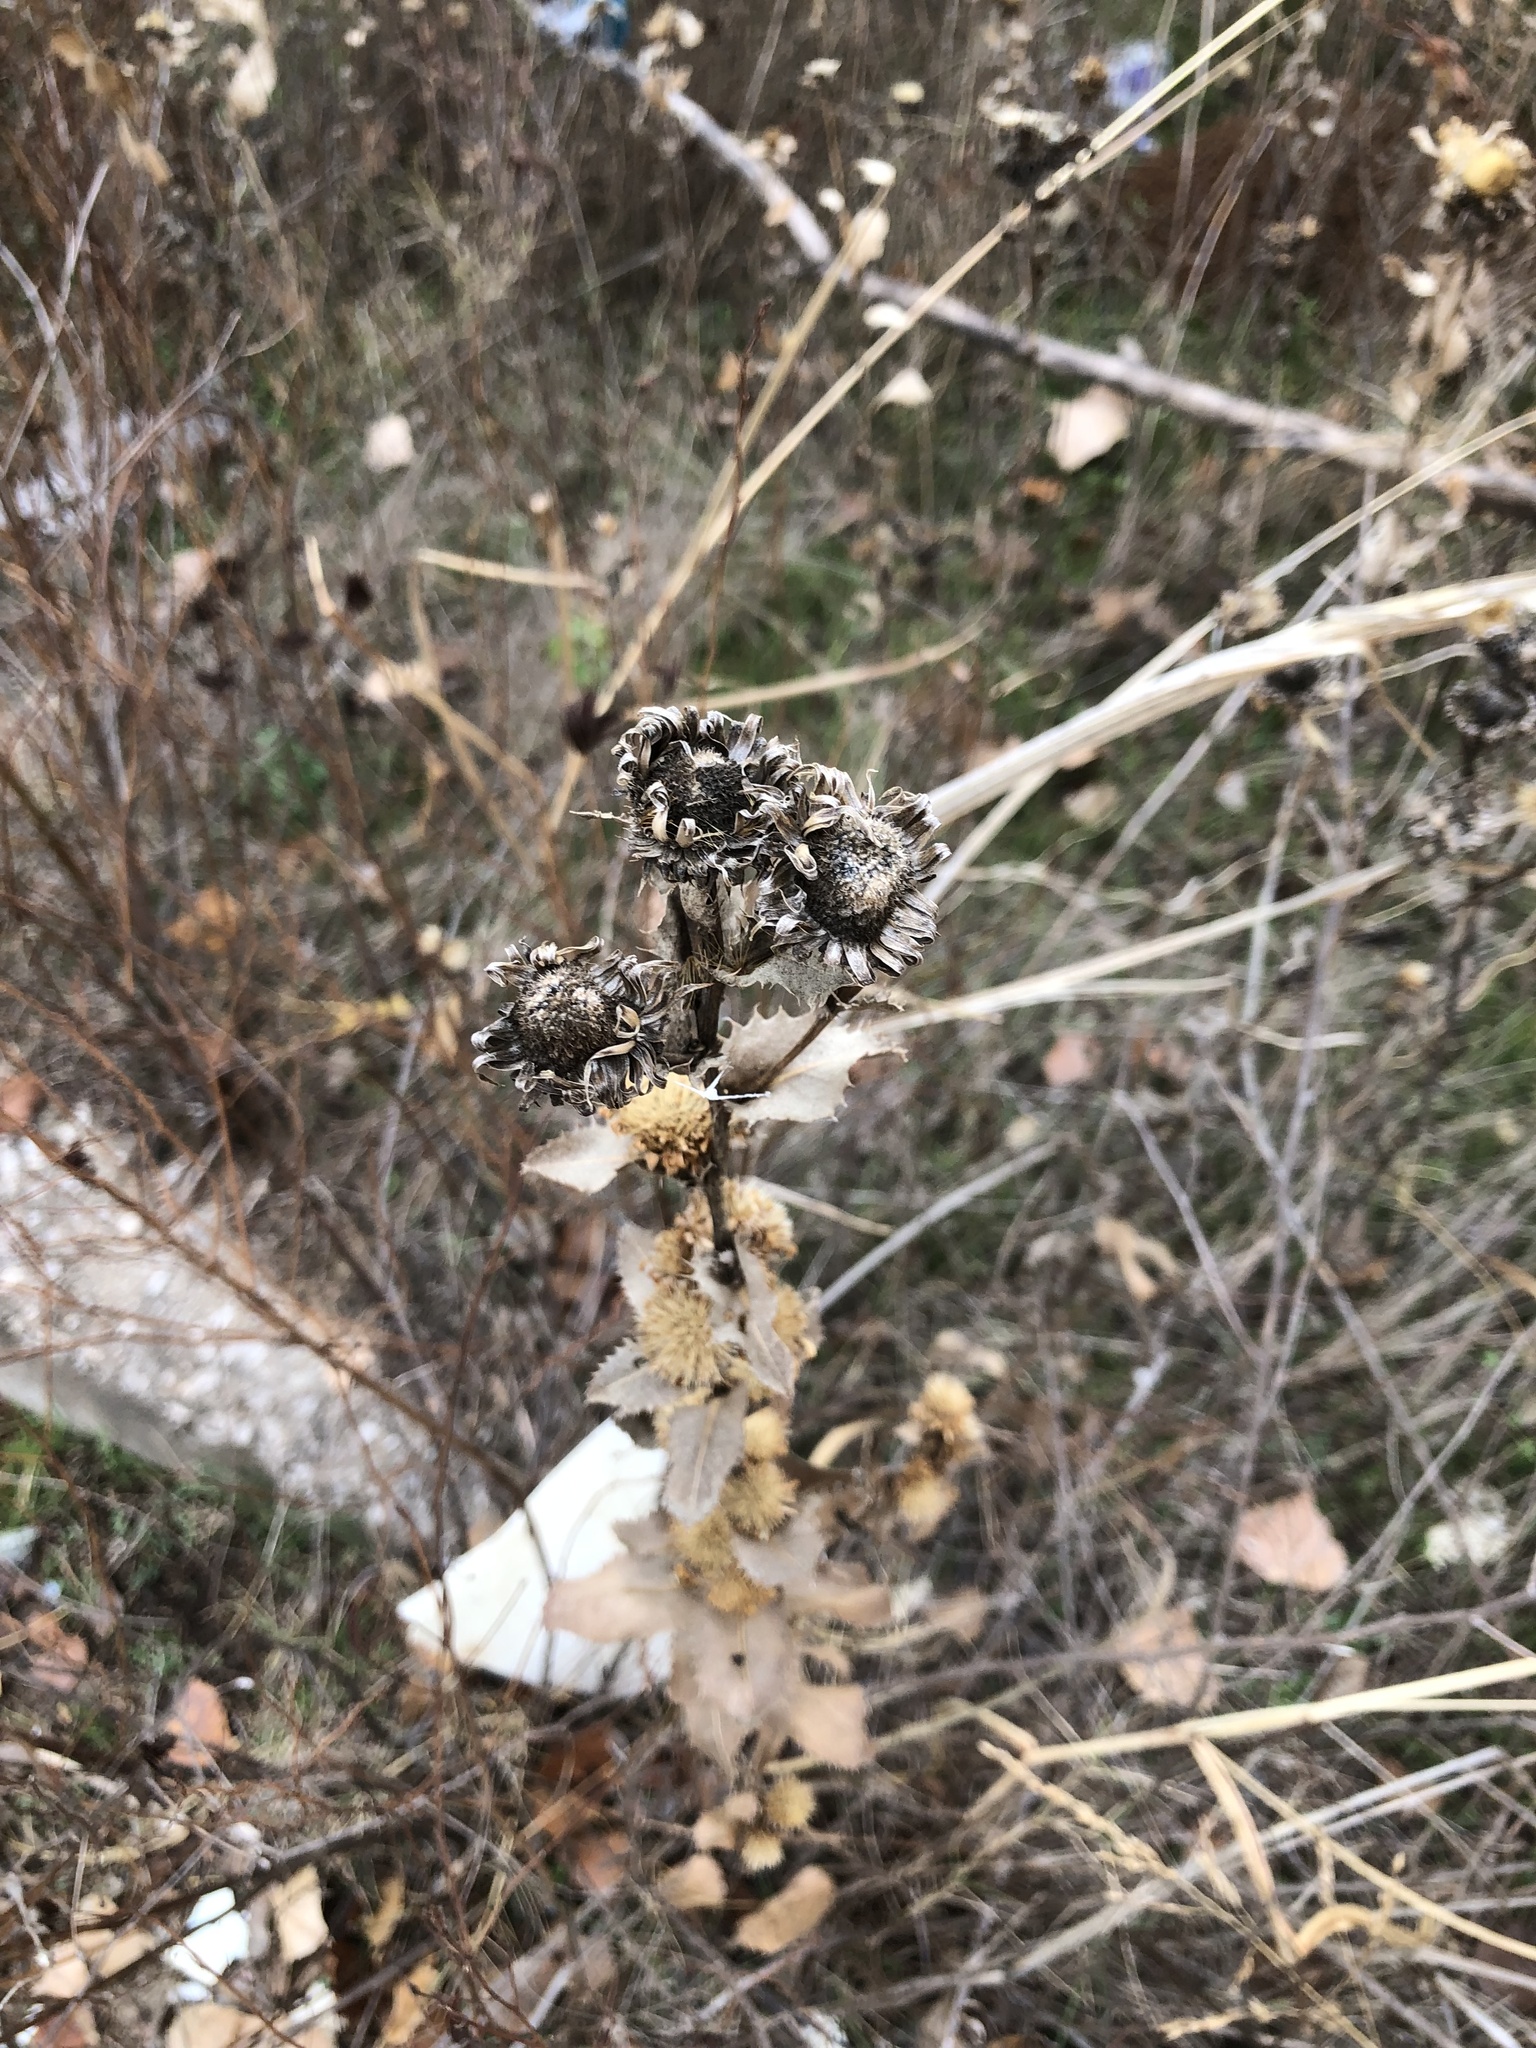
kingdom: Plantae
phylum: Tracheophyta
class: Magnoliopsida
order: Asterales
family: Asteraceae
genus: Grindelia
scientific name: Grindelia ciliata
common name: Goldenweed
